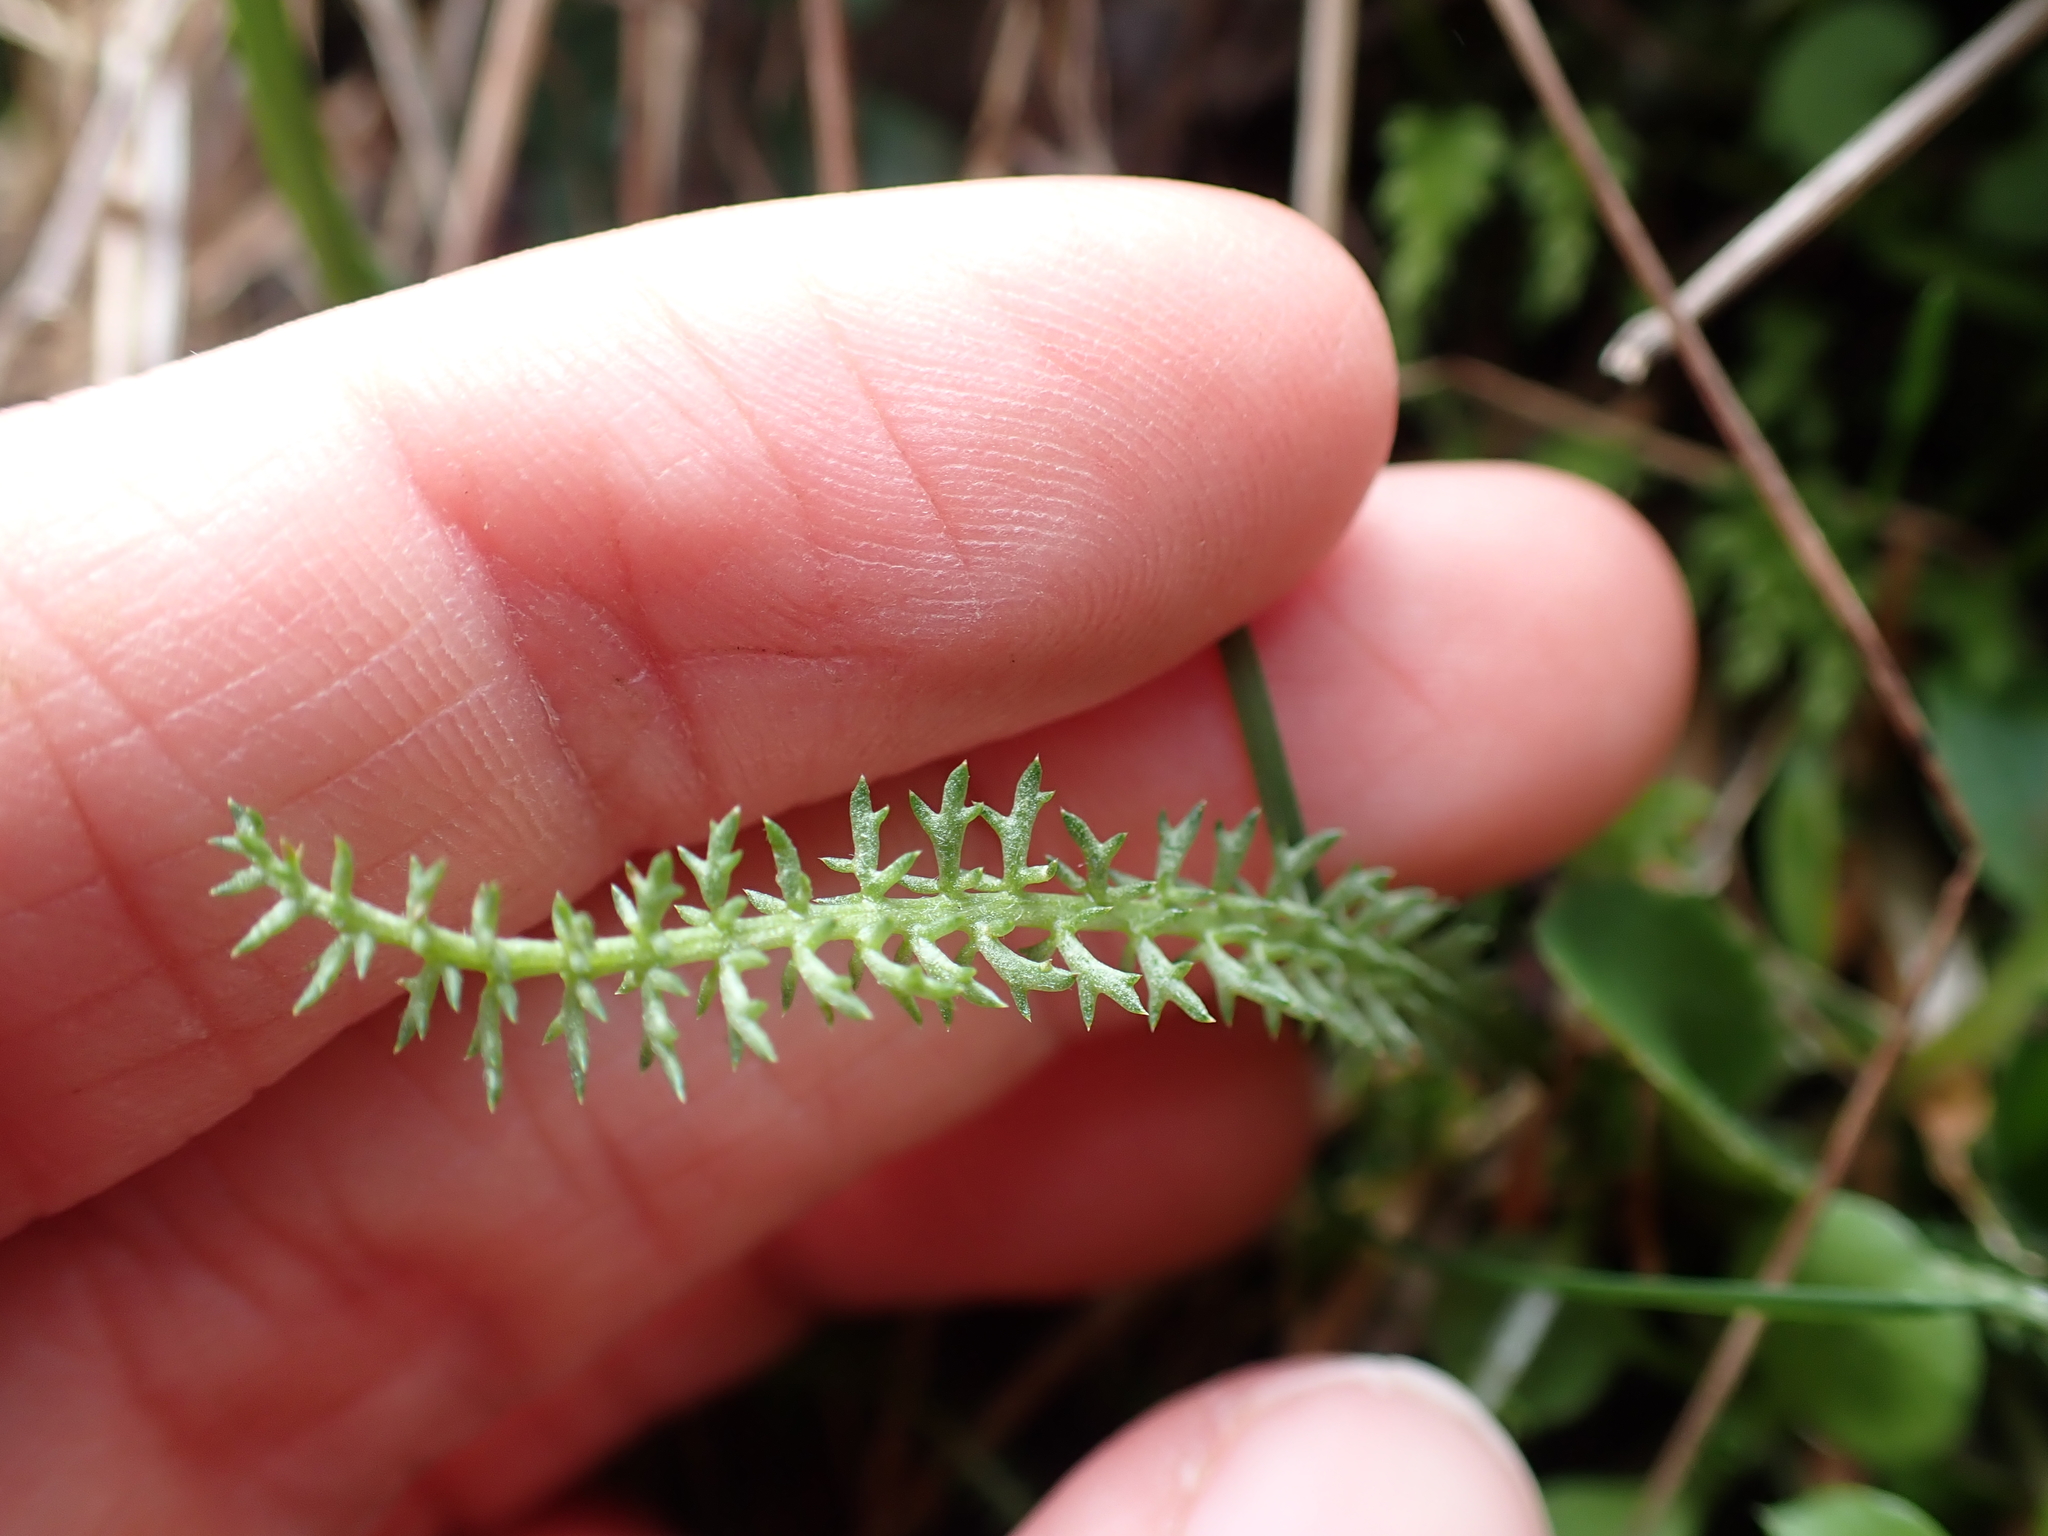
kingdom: Plantae
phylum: Tracheophyta
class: Magnoliopsida
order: Asterales
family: Asteraceae
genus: Achillea
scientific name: Achillea millefolium
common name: Yarrow
